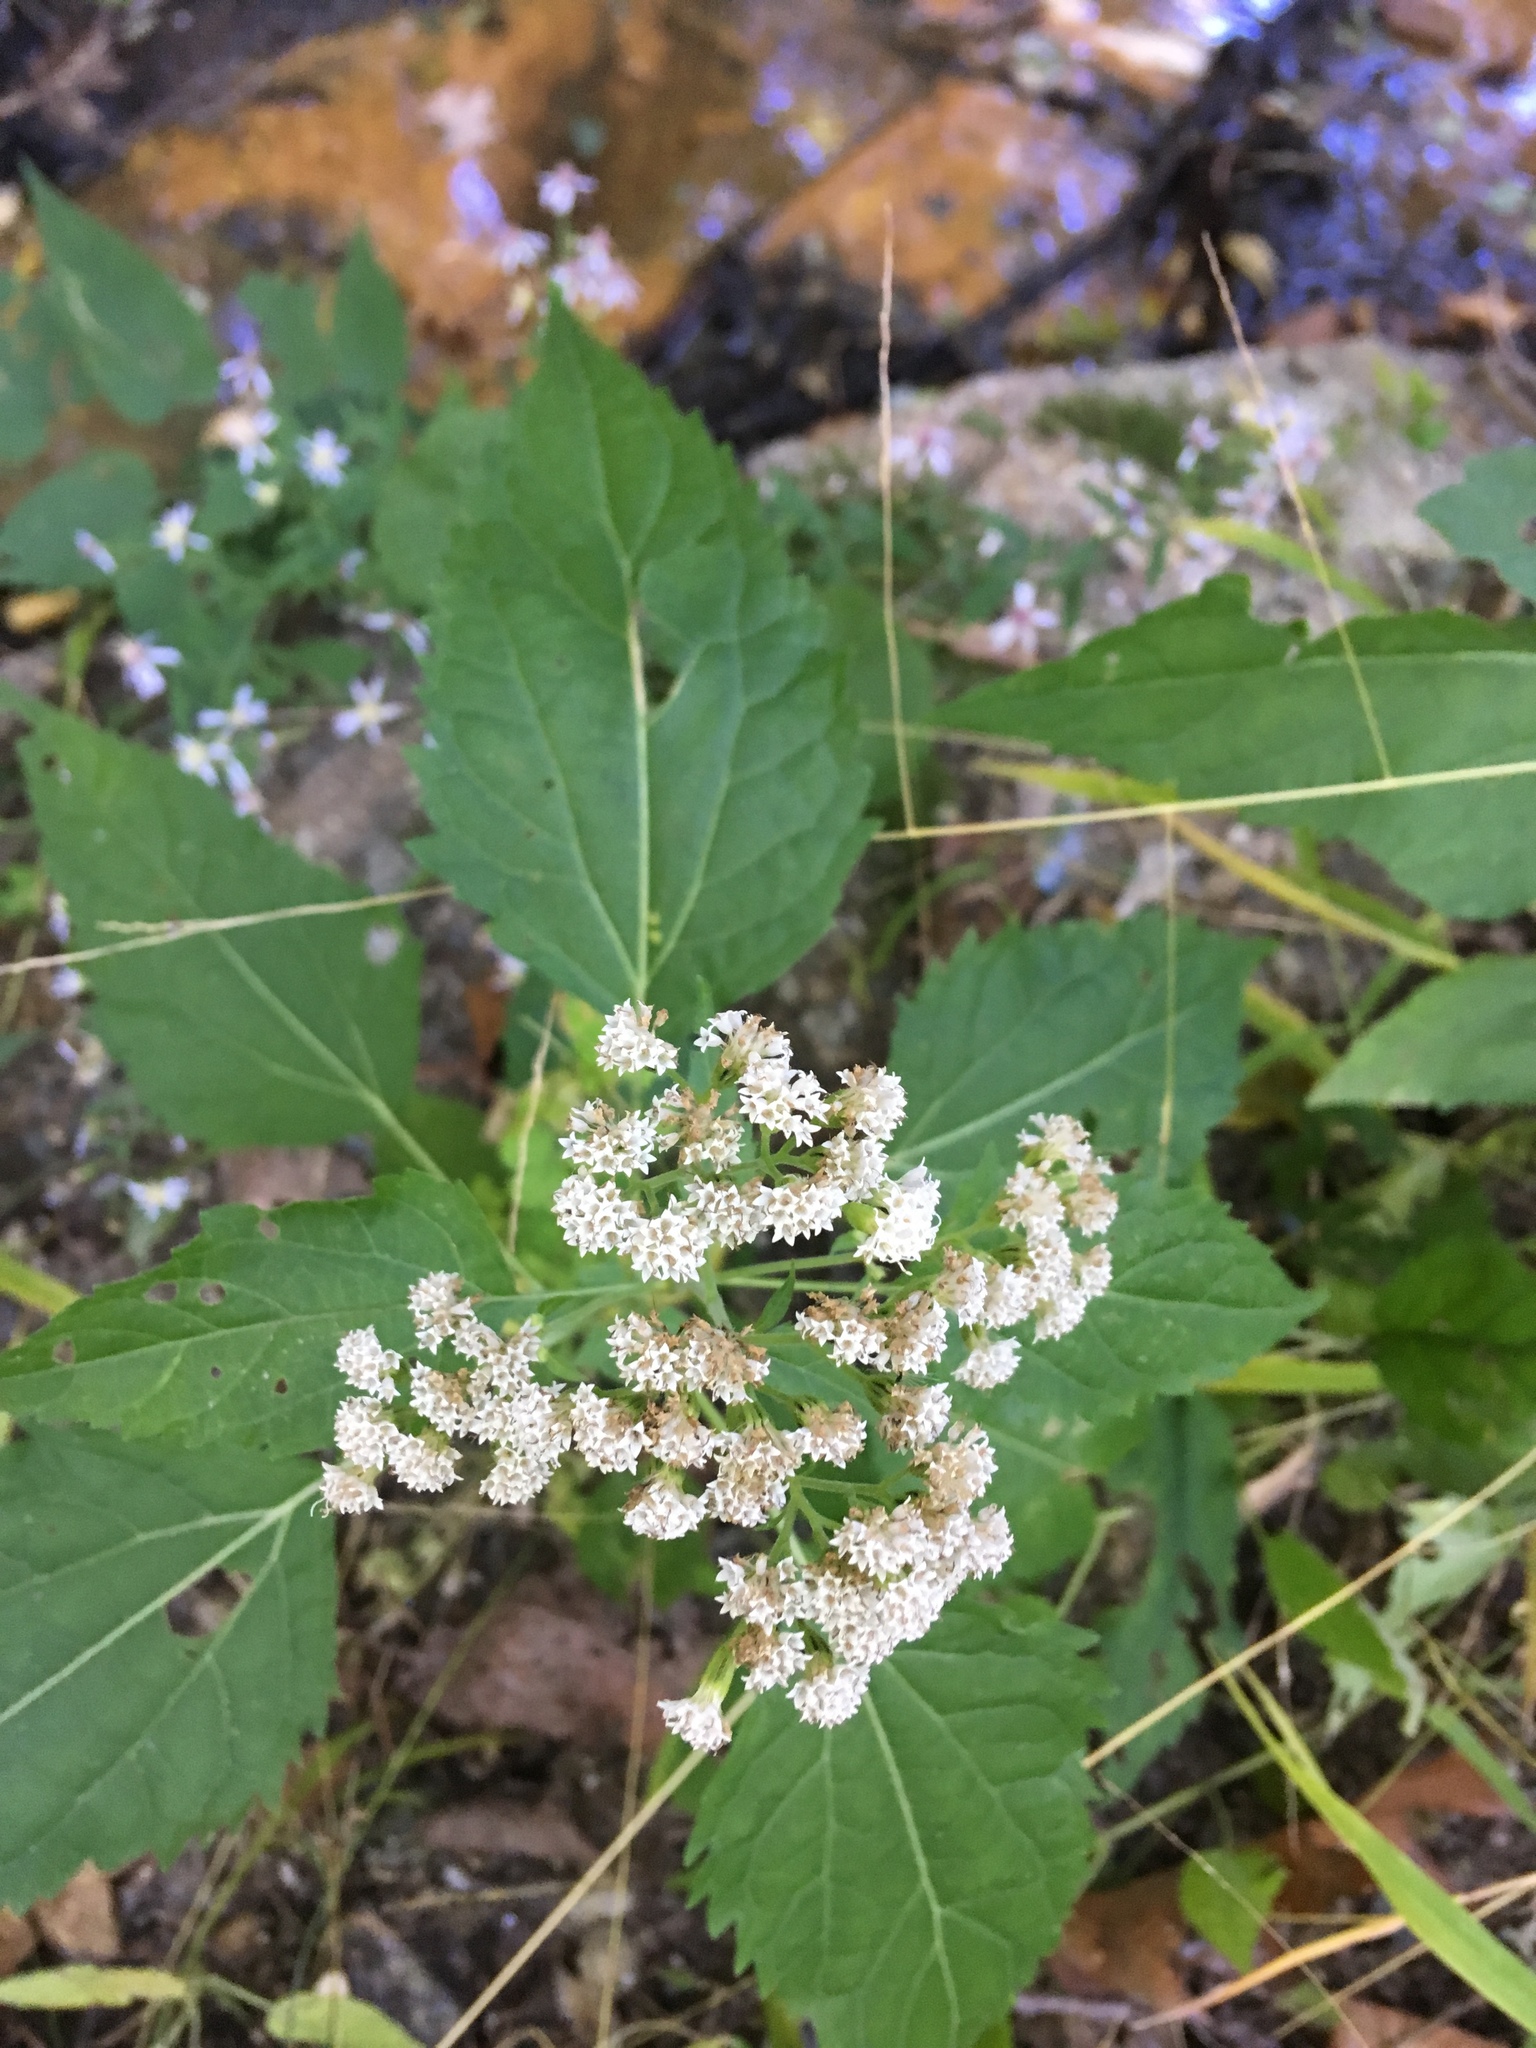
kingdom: Plantae
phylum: Tracheophyta
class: Magnoliopsida
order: Asterales
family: Asteraceae
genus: Ageratina
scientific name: Ageratina altissima
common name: White snakeroot
